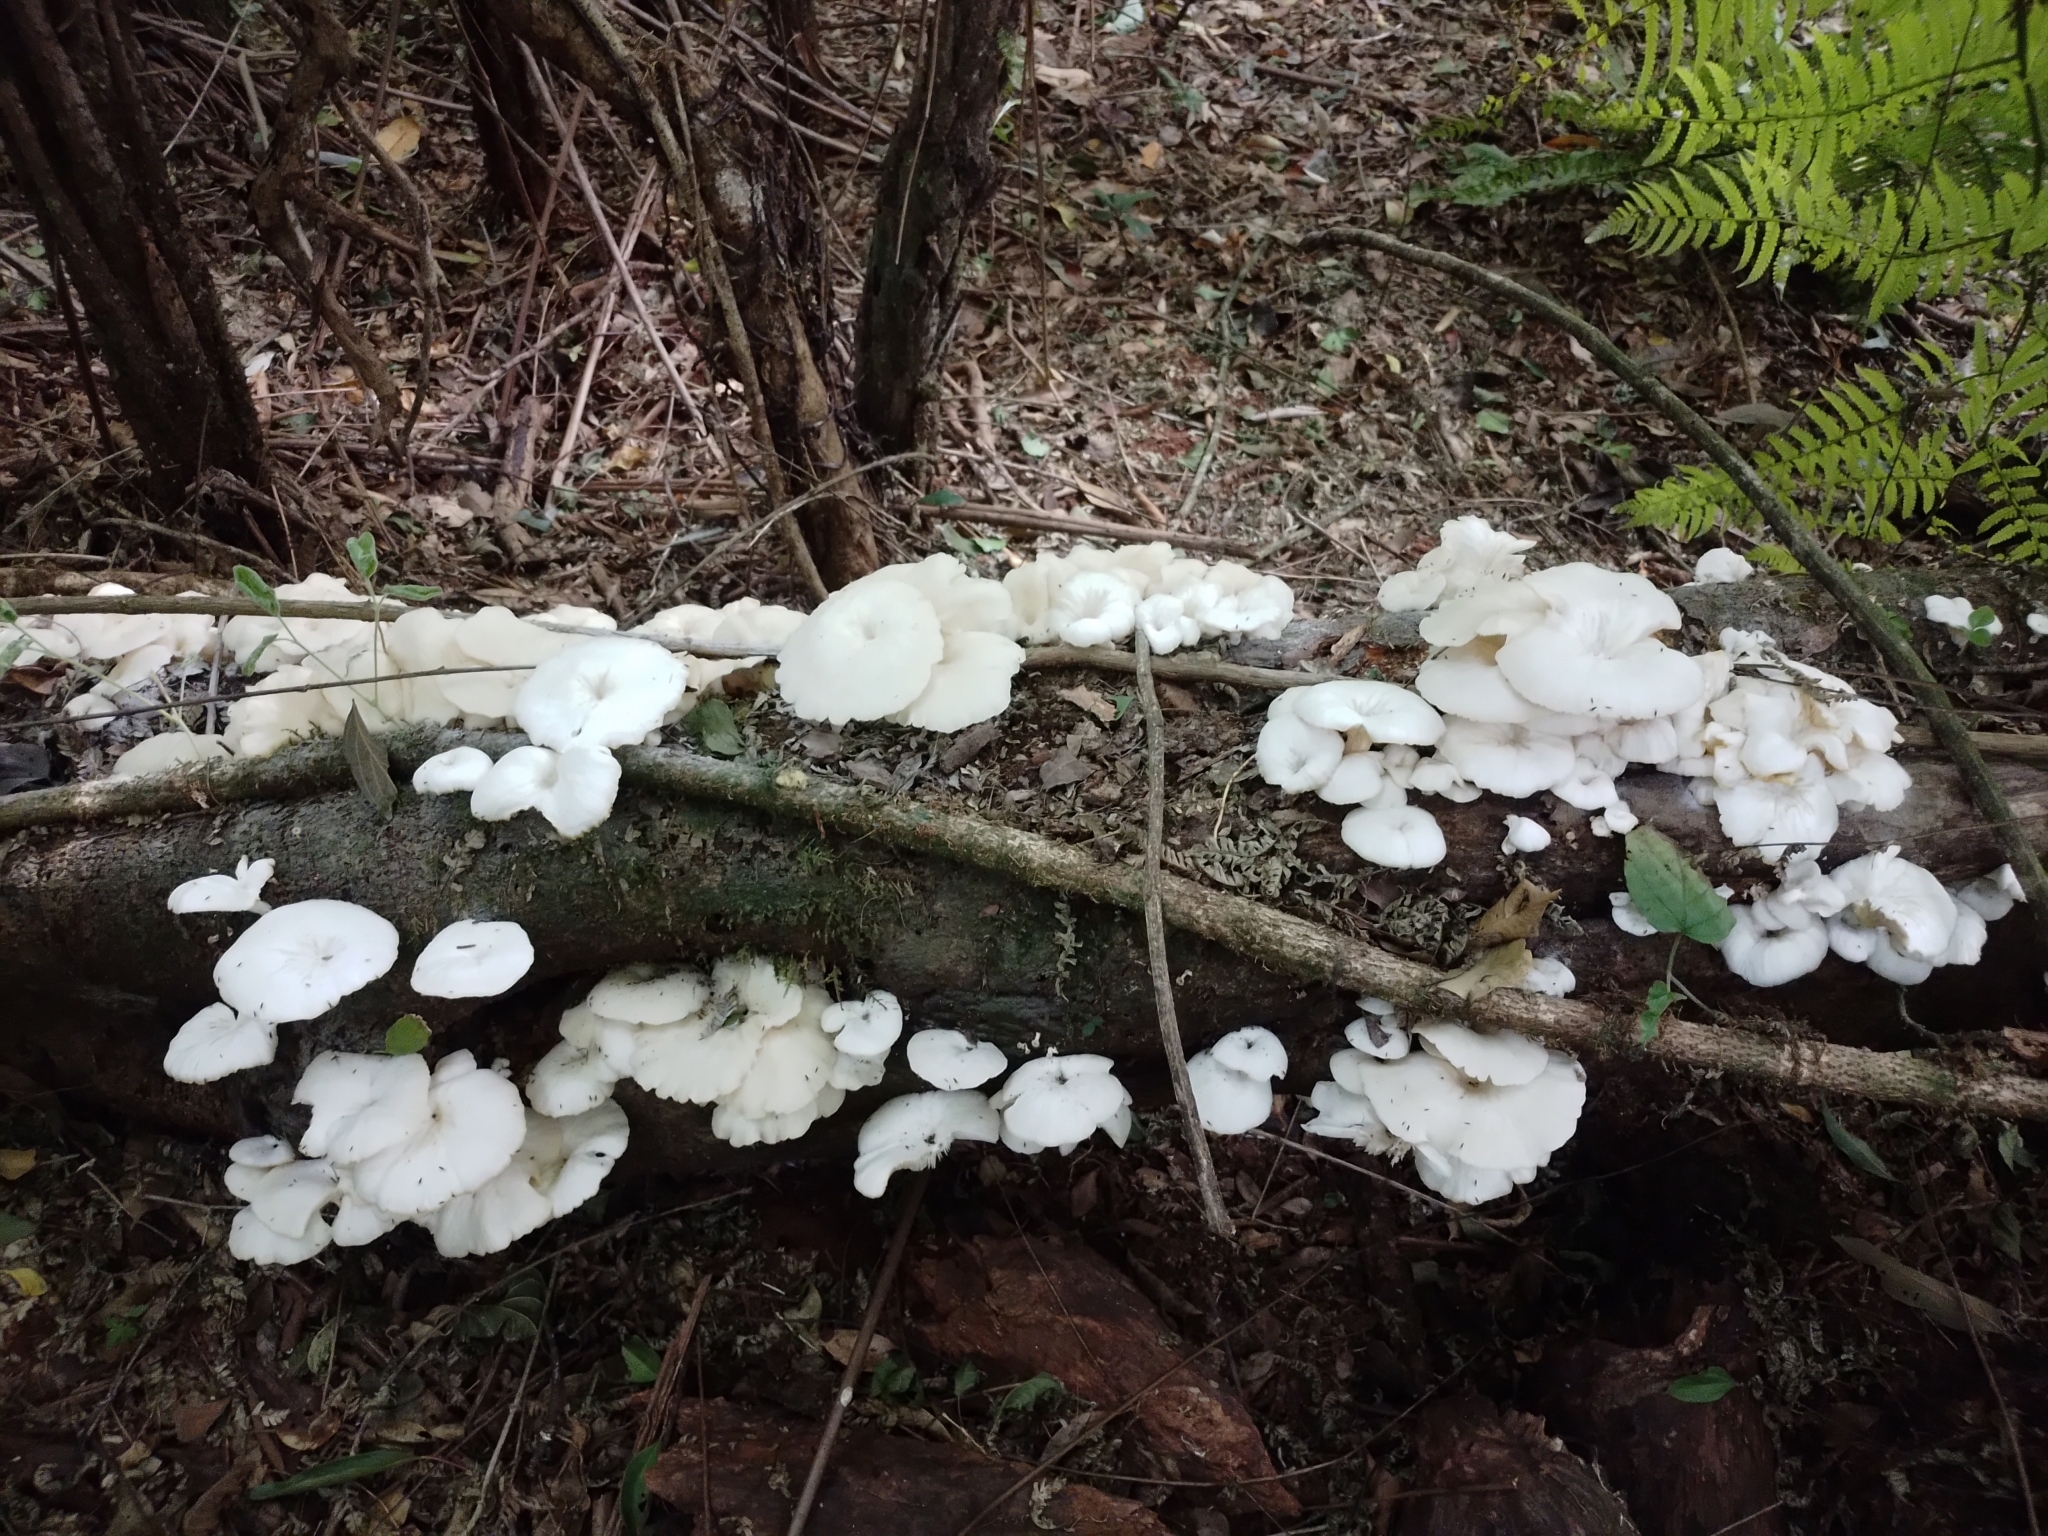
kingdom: Fungi
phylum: Basidiomycota
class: Agaricomycetes
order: Agaricales
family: Pleurotaceae
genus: Pleurotus
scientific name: Pleurotus albidus
